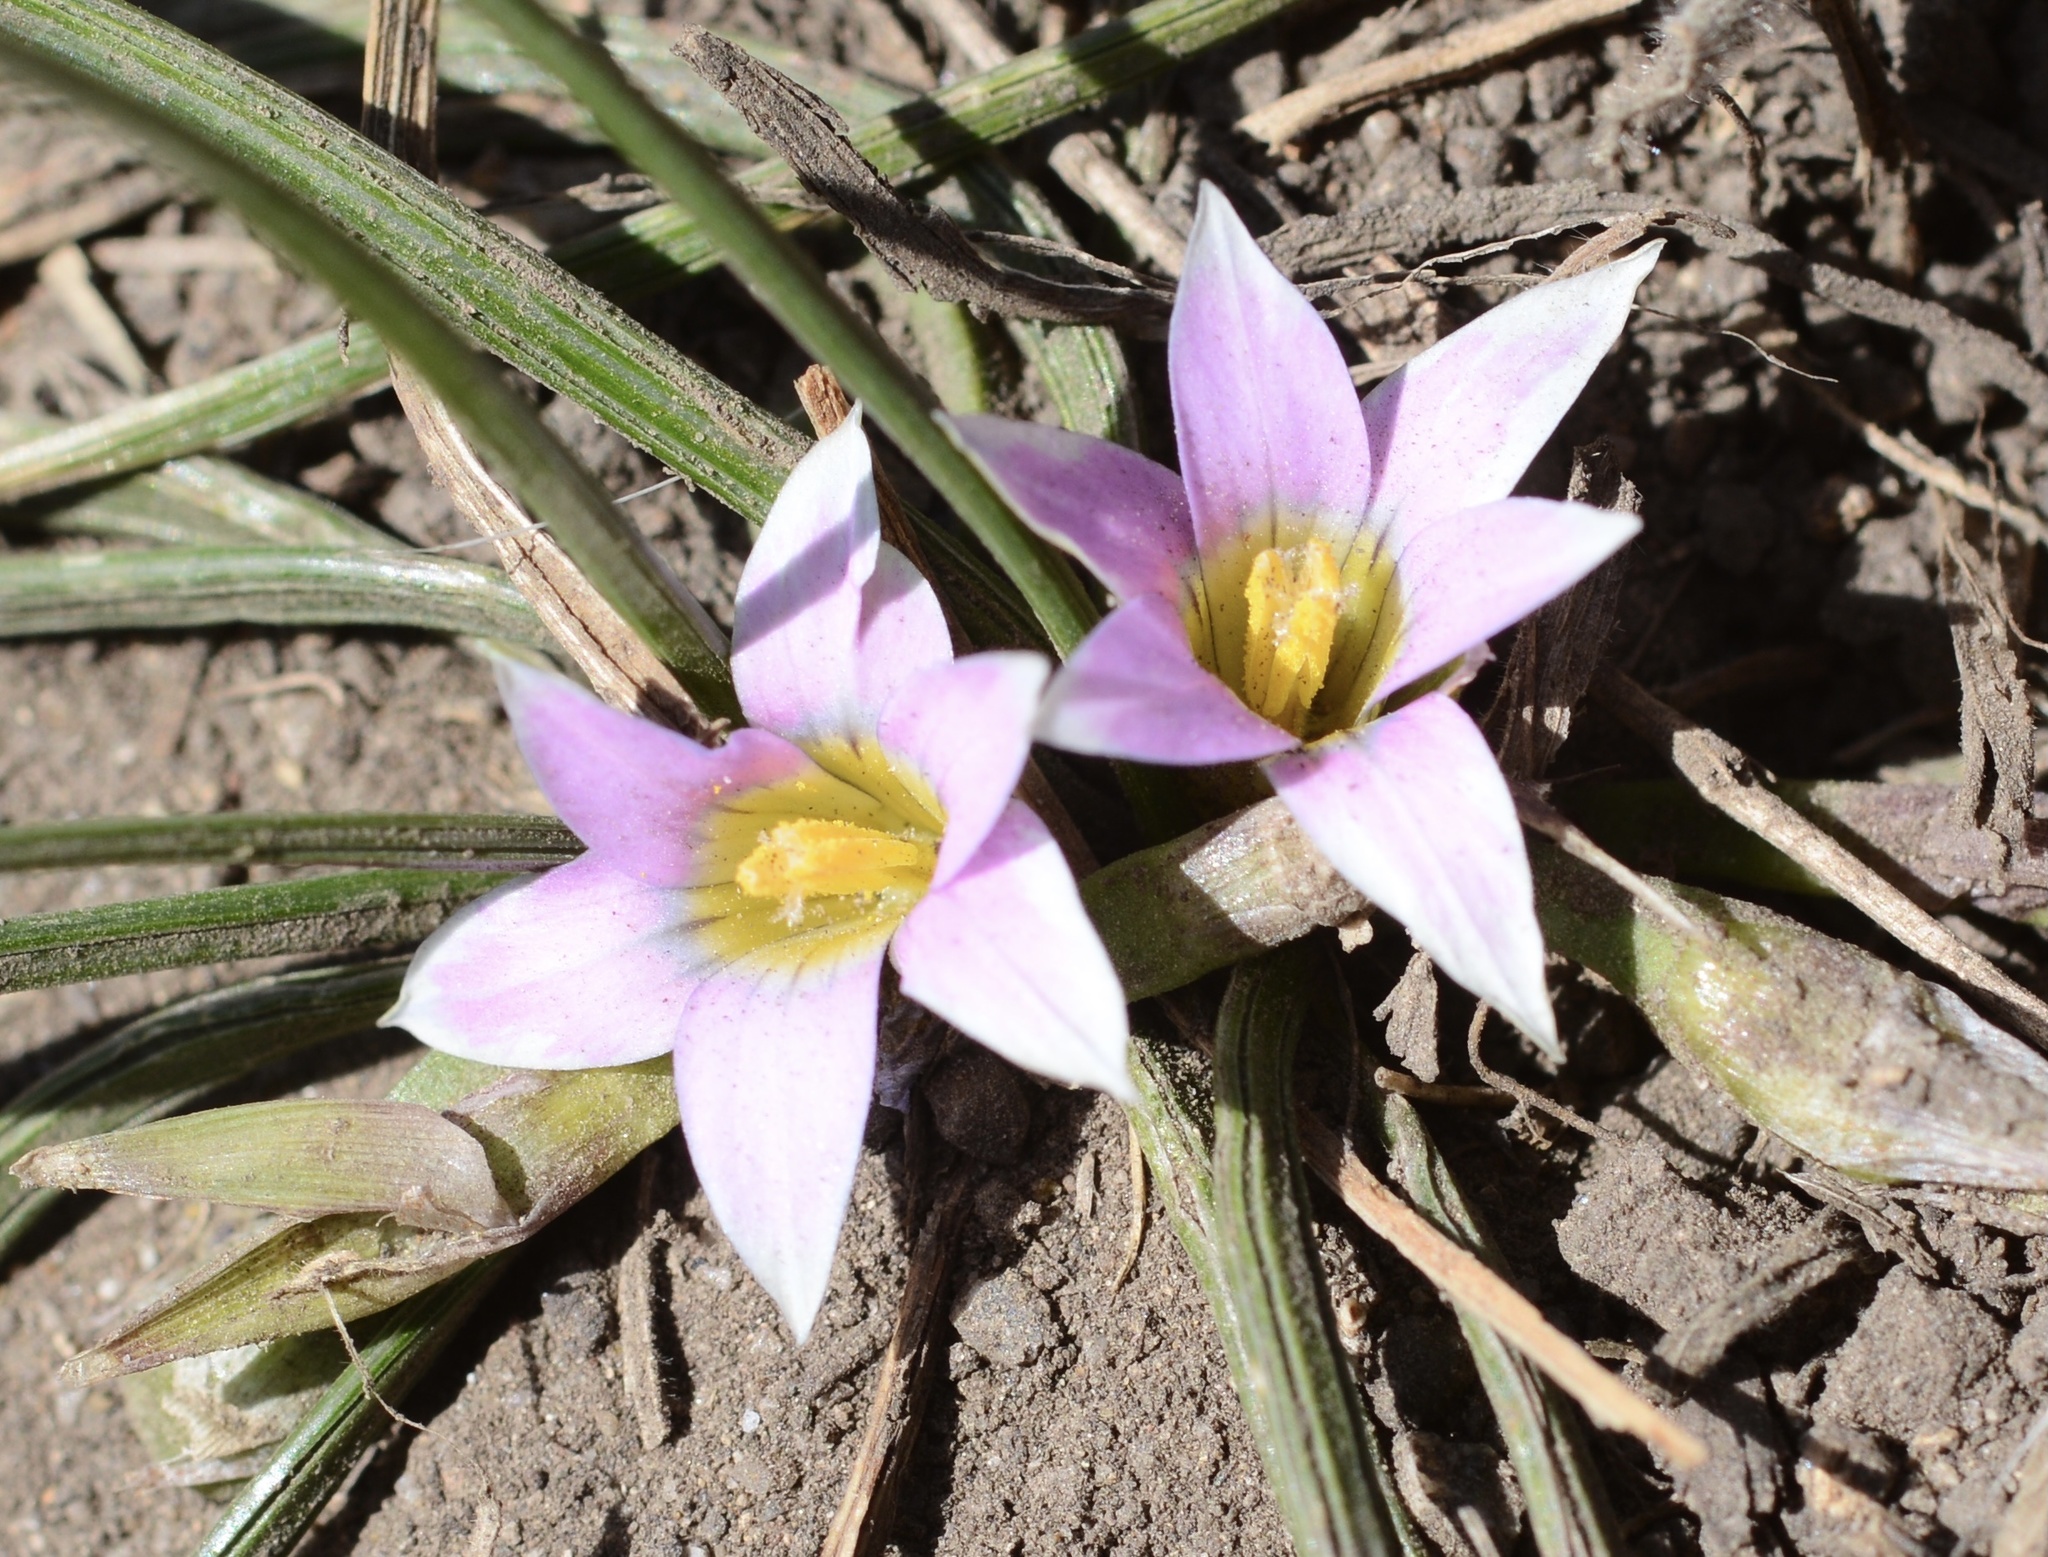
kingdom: Plantae
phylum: Tracheophyta
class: Liliopsida
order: Asparagales
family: Iridaceae
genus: Romulea
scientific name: Romulea rosea
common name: Oniongrass
